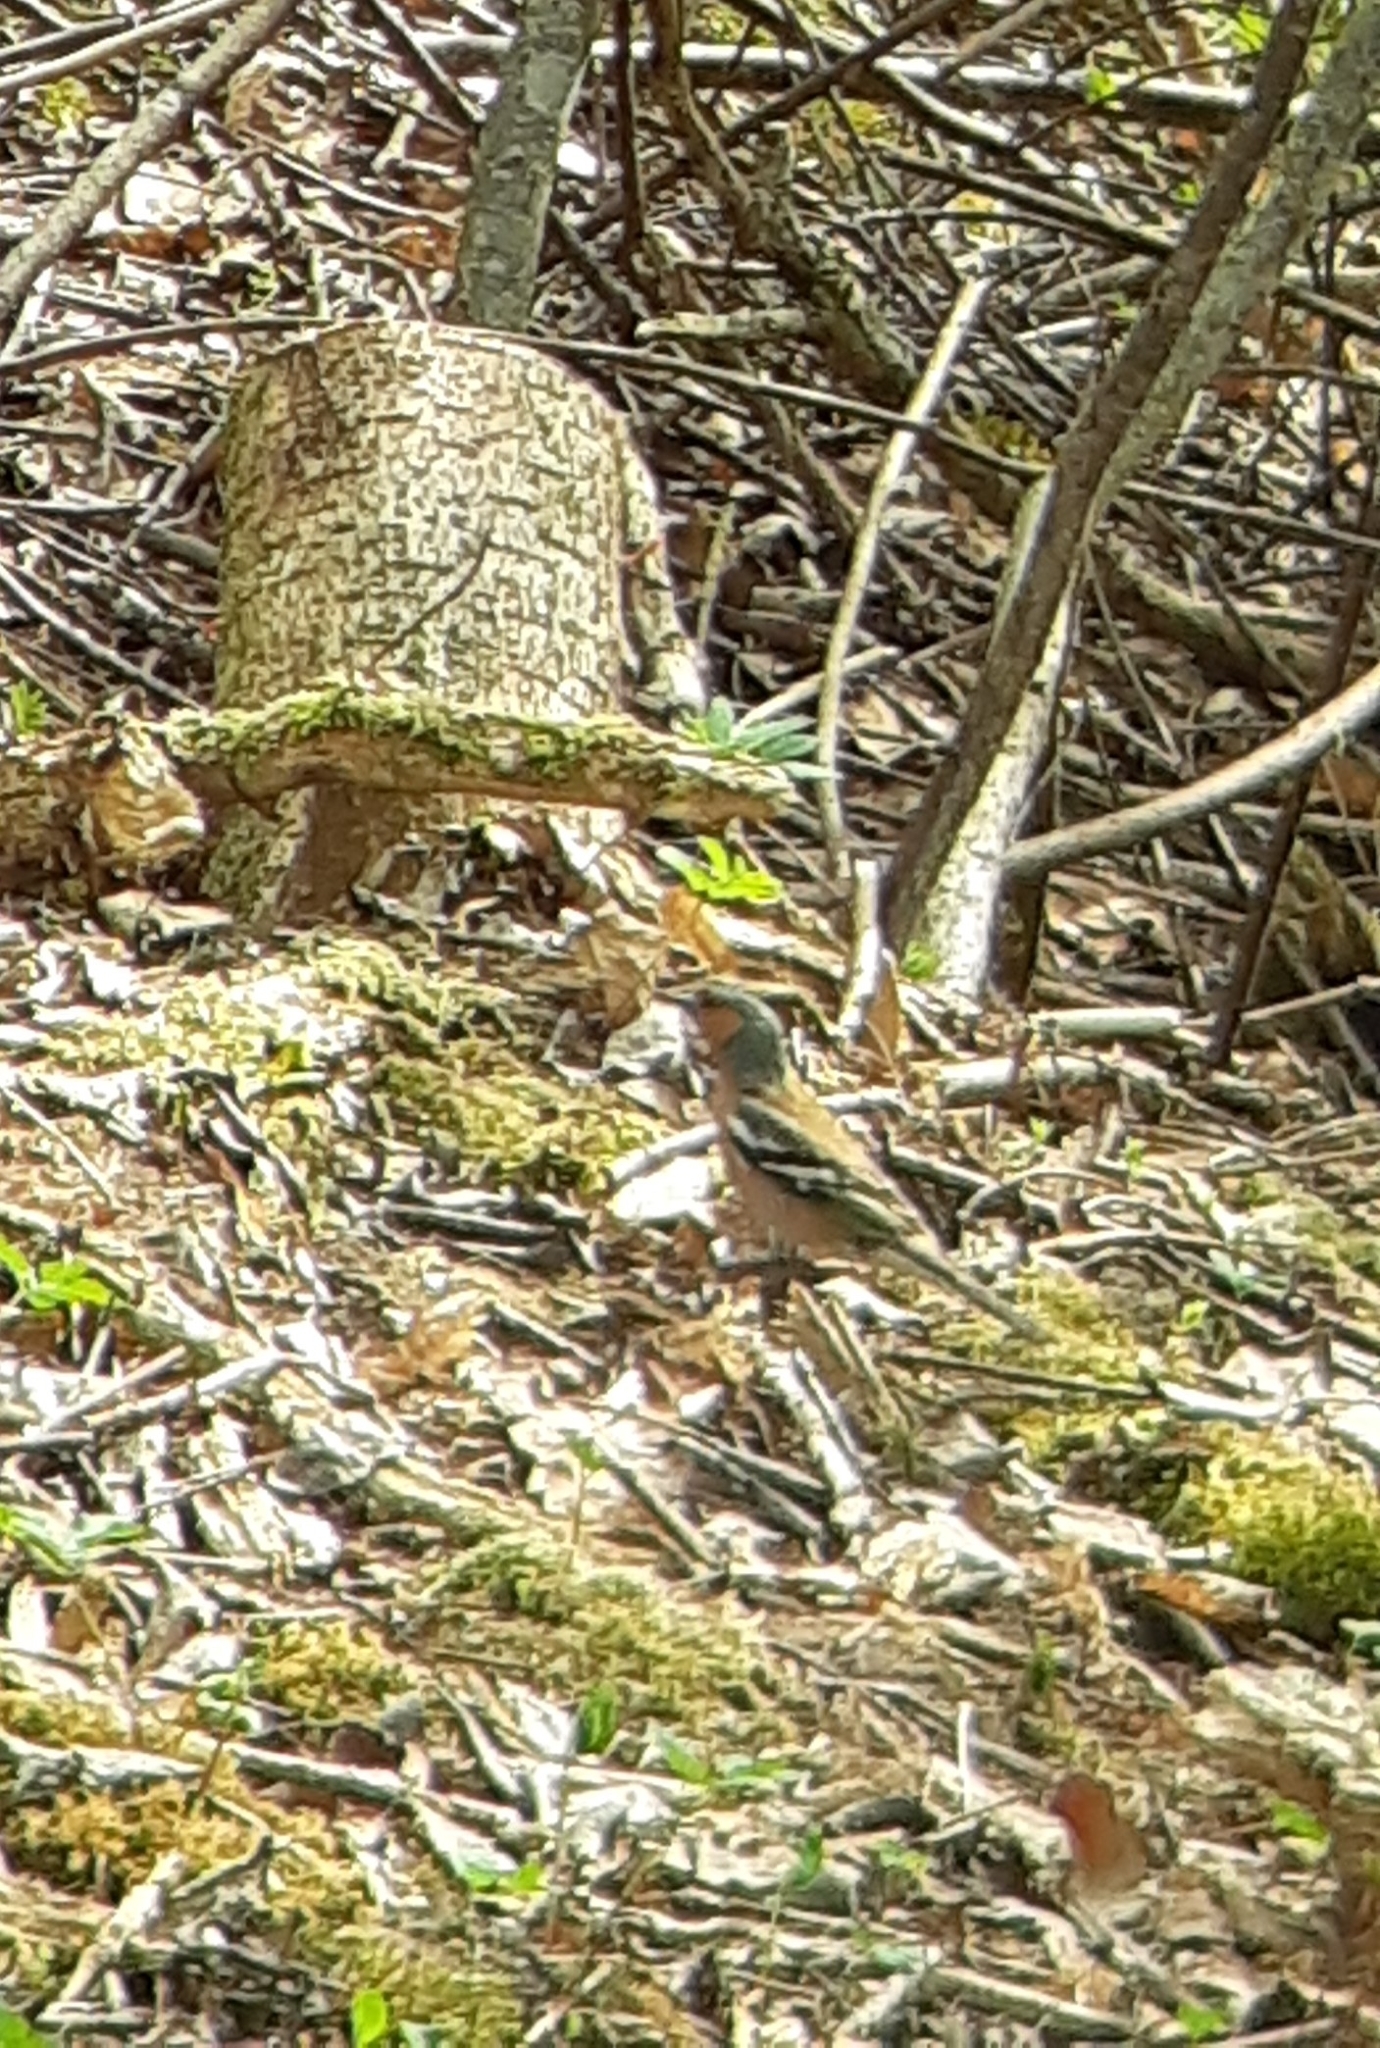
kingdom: Animalia
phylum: Chordata
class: Aves
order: Passeriformes
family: Fringillidae
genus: Fringilla
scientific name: Fringilla coelebs
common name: Common chaffinch
